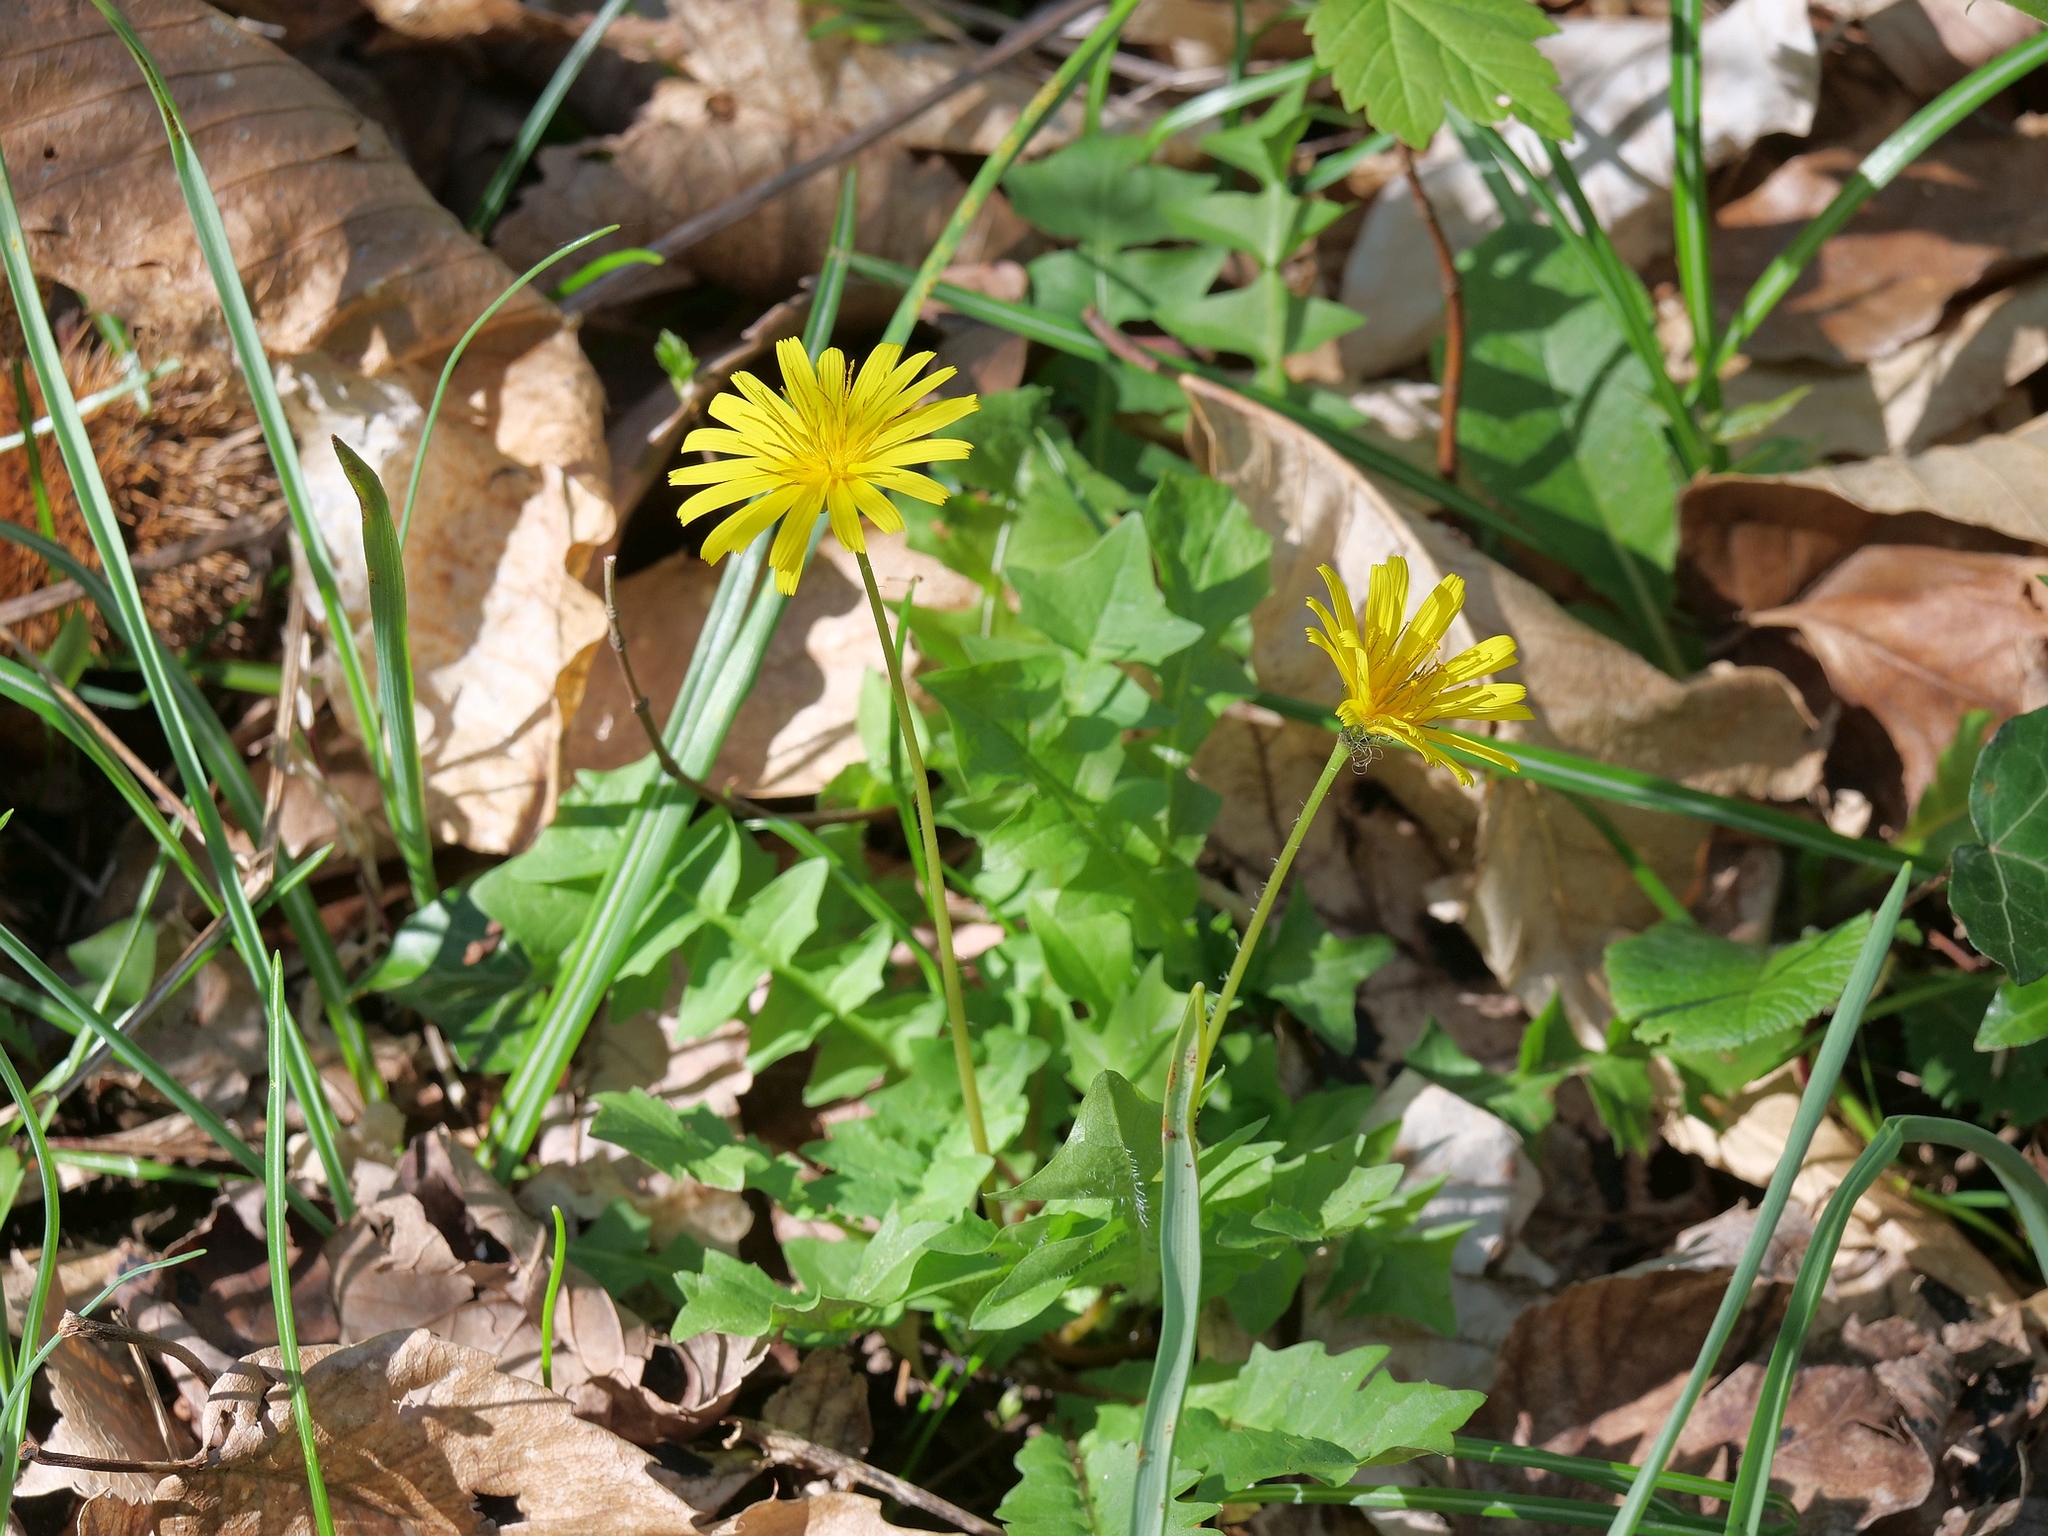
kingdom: Plantae
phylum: Tracheophyta
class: Magnoliopsida
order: Asterales
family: Asteraceae
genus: Aposeris
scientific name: Aposeris foetida
